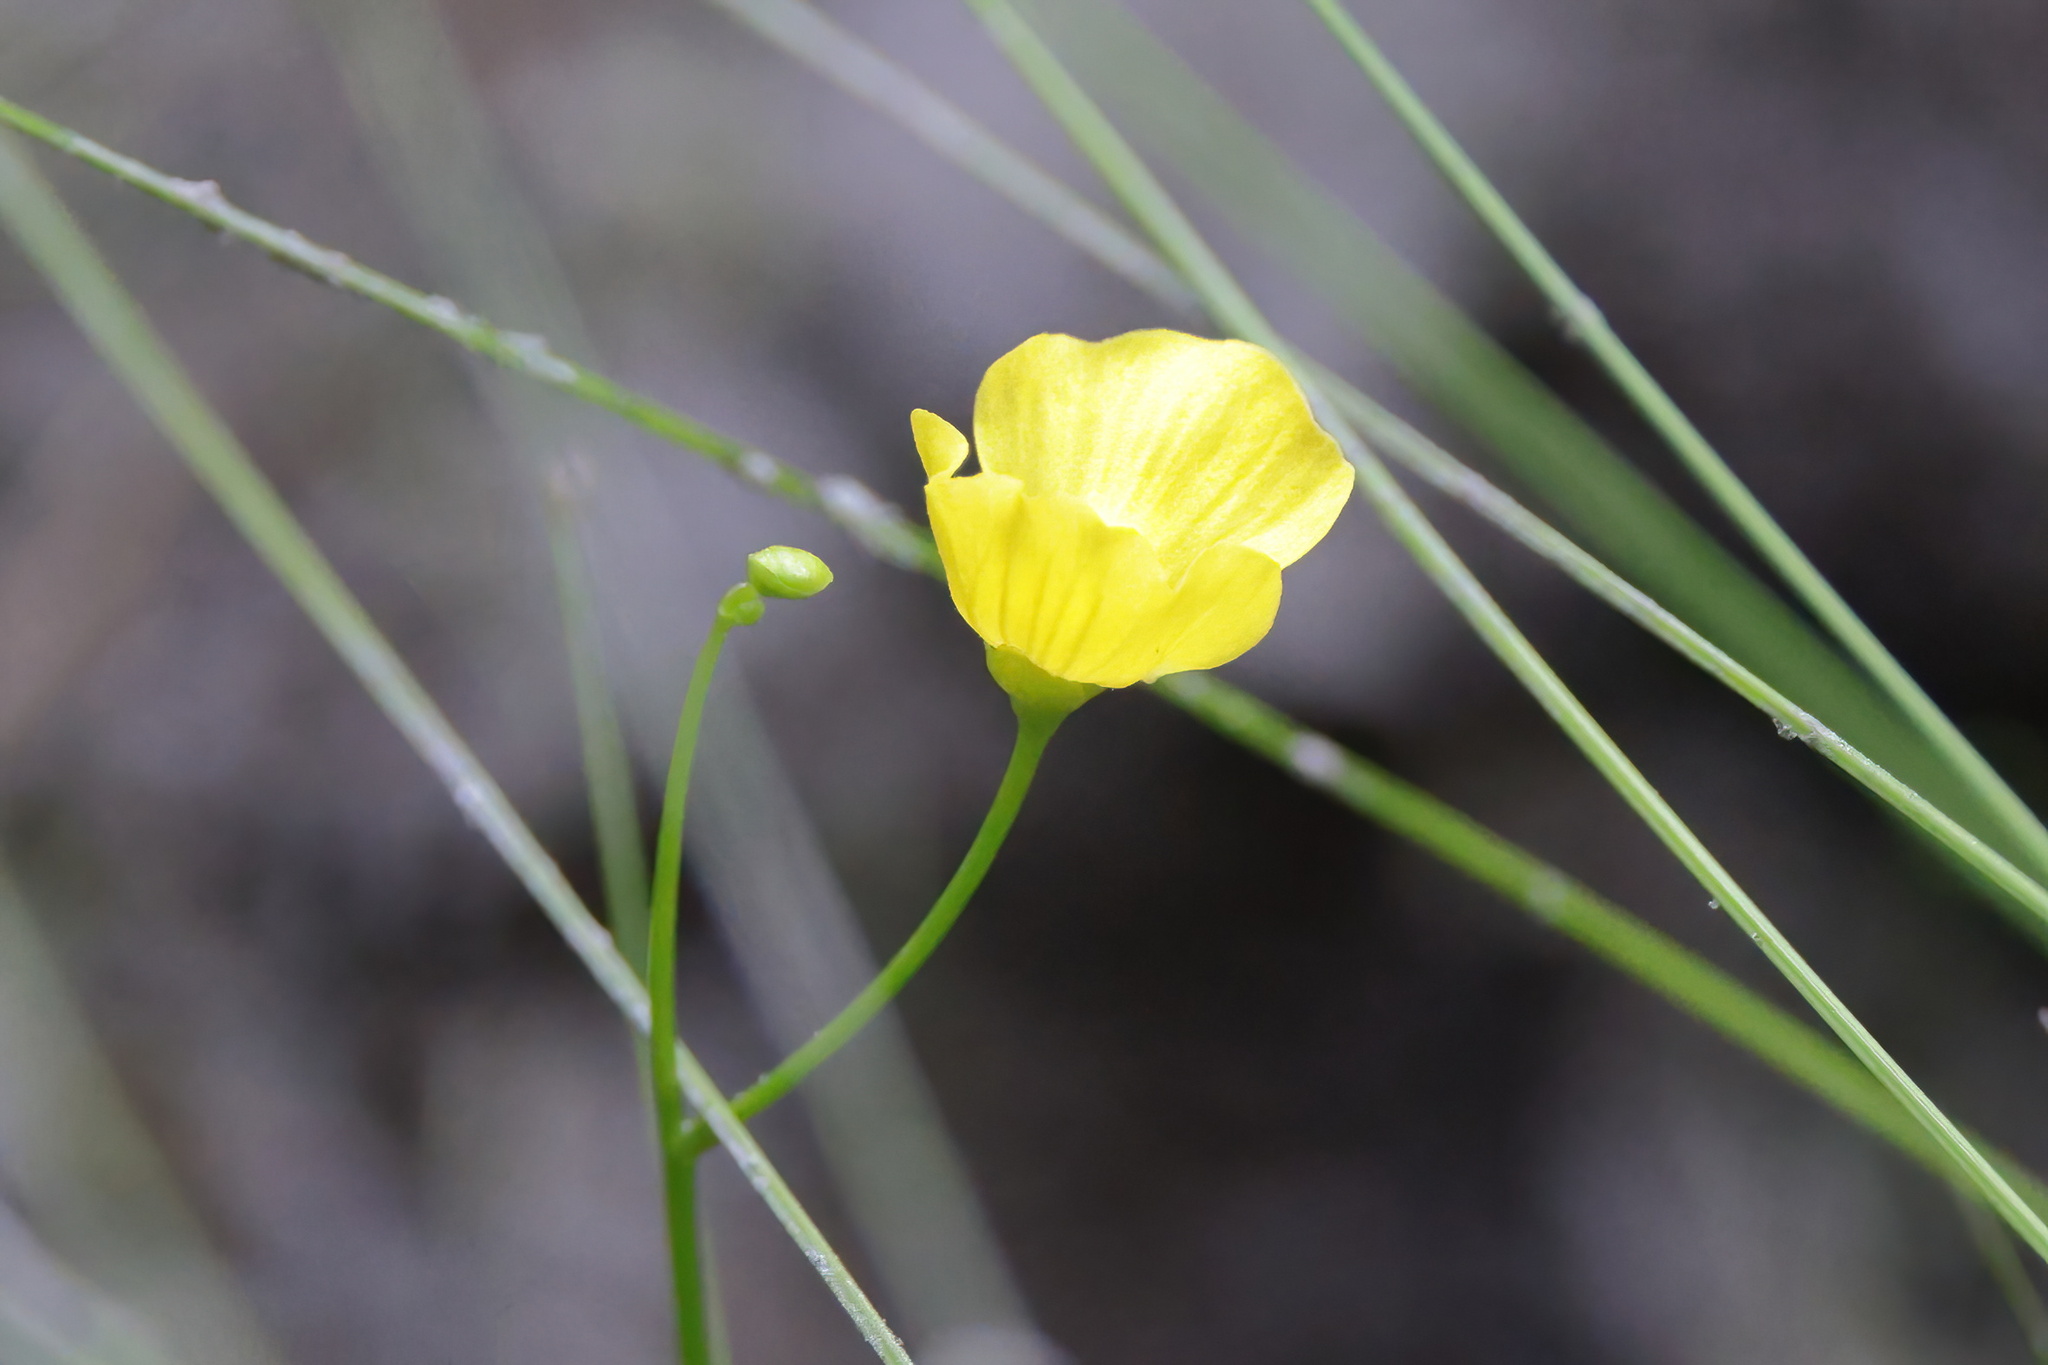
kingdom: Plantae
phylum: Tracheophyta
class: Magnoliopsida
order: Lamiales
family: Lentibulariaceae
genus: Utricularia
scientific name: Utricularia gibba
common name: Humped bladderwort
